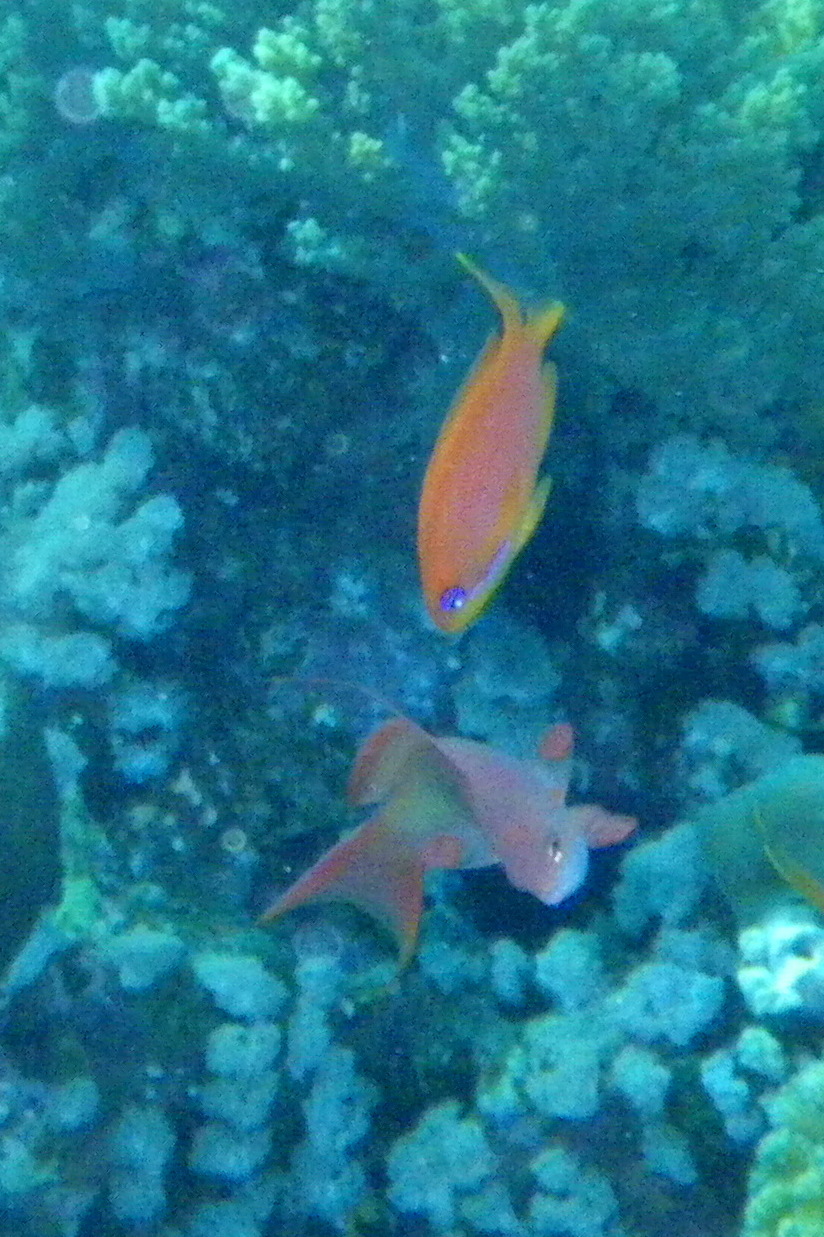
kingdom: Animalia
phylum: Chordata
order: Perciformes
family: Serranidae
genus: Pseudanthias
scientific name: Pseudanthias squamipinnis
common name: Scalefin anthias
